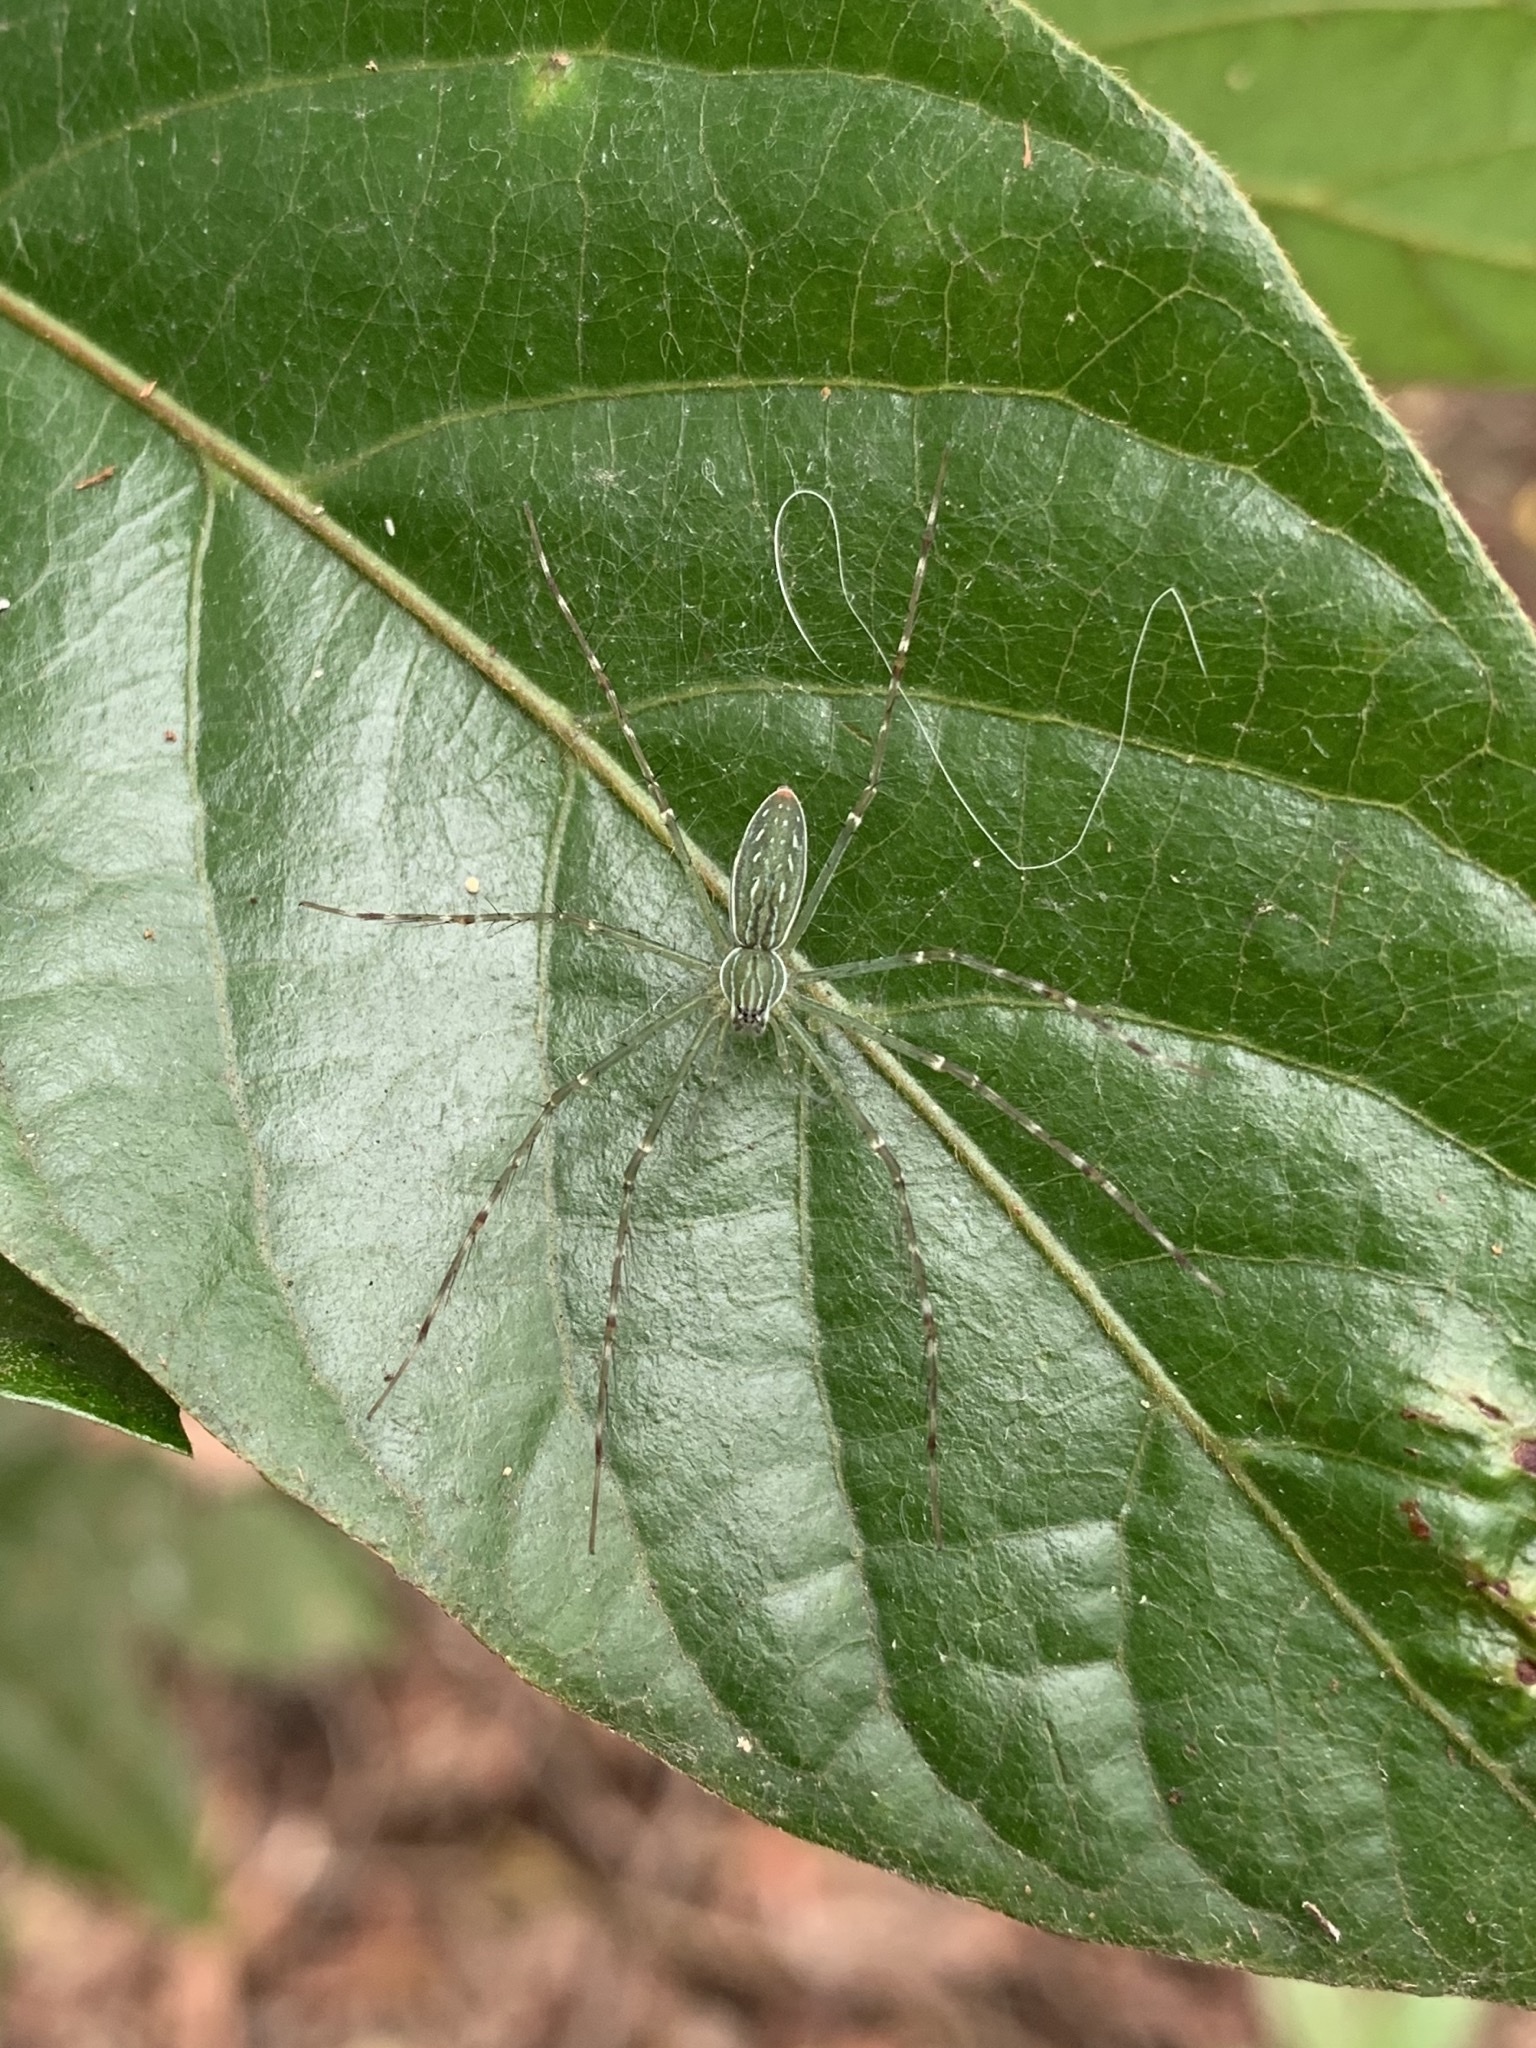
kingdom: Animalia
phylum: Arthropoda
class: Arachnida
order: Araneae
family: Pisauridae
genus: Hygropoda
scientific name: Hygropoda lineata
